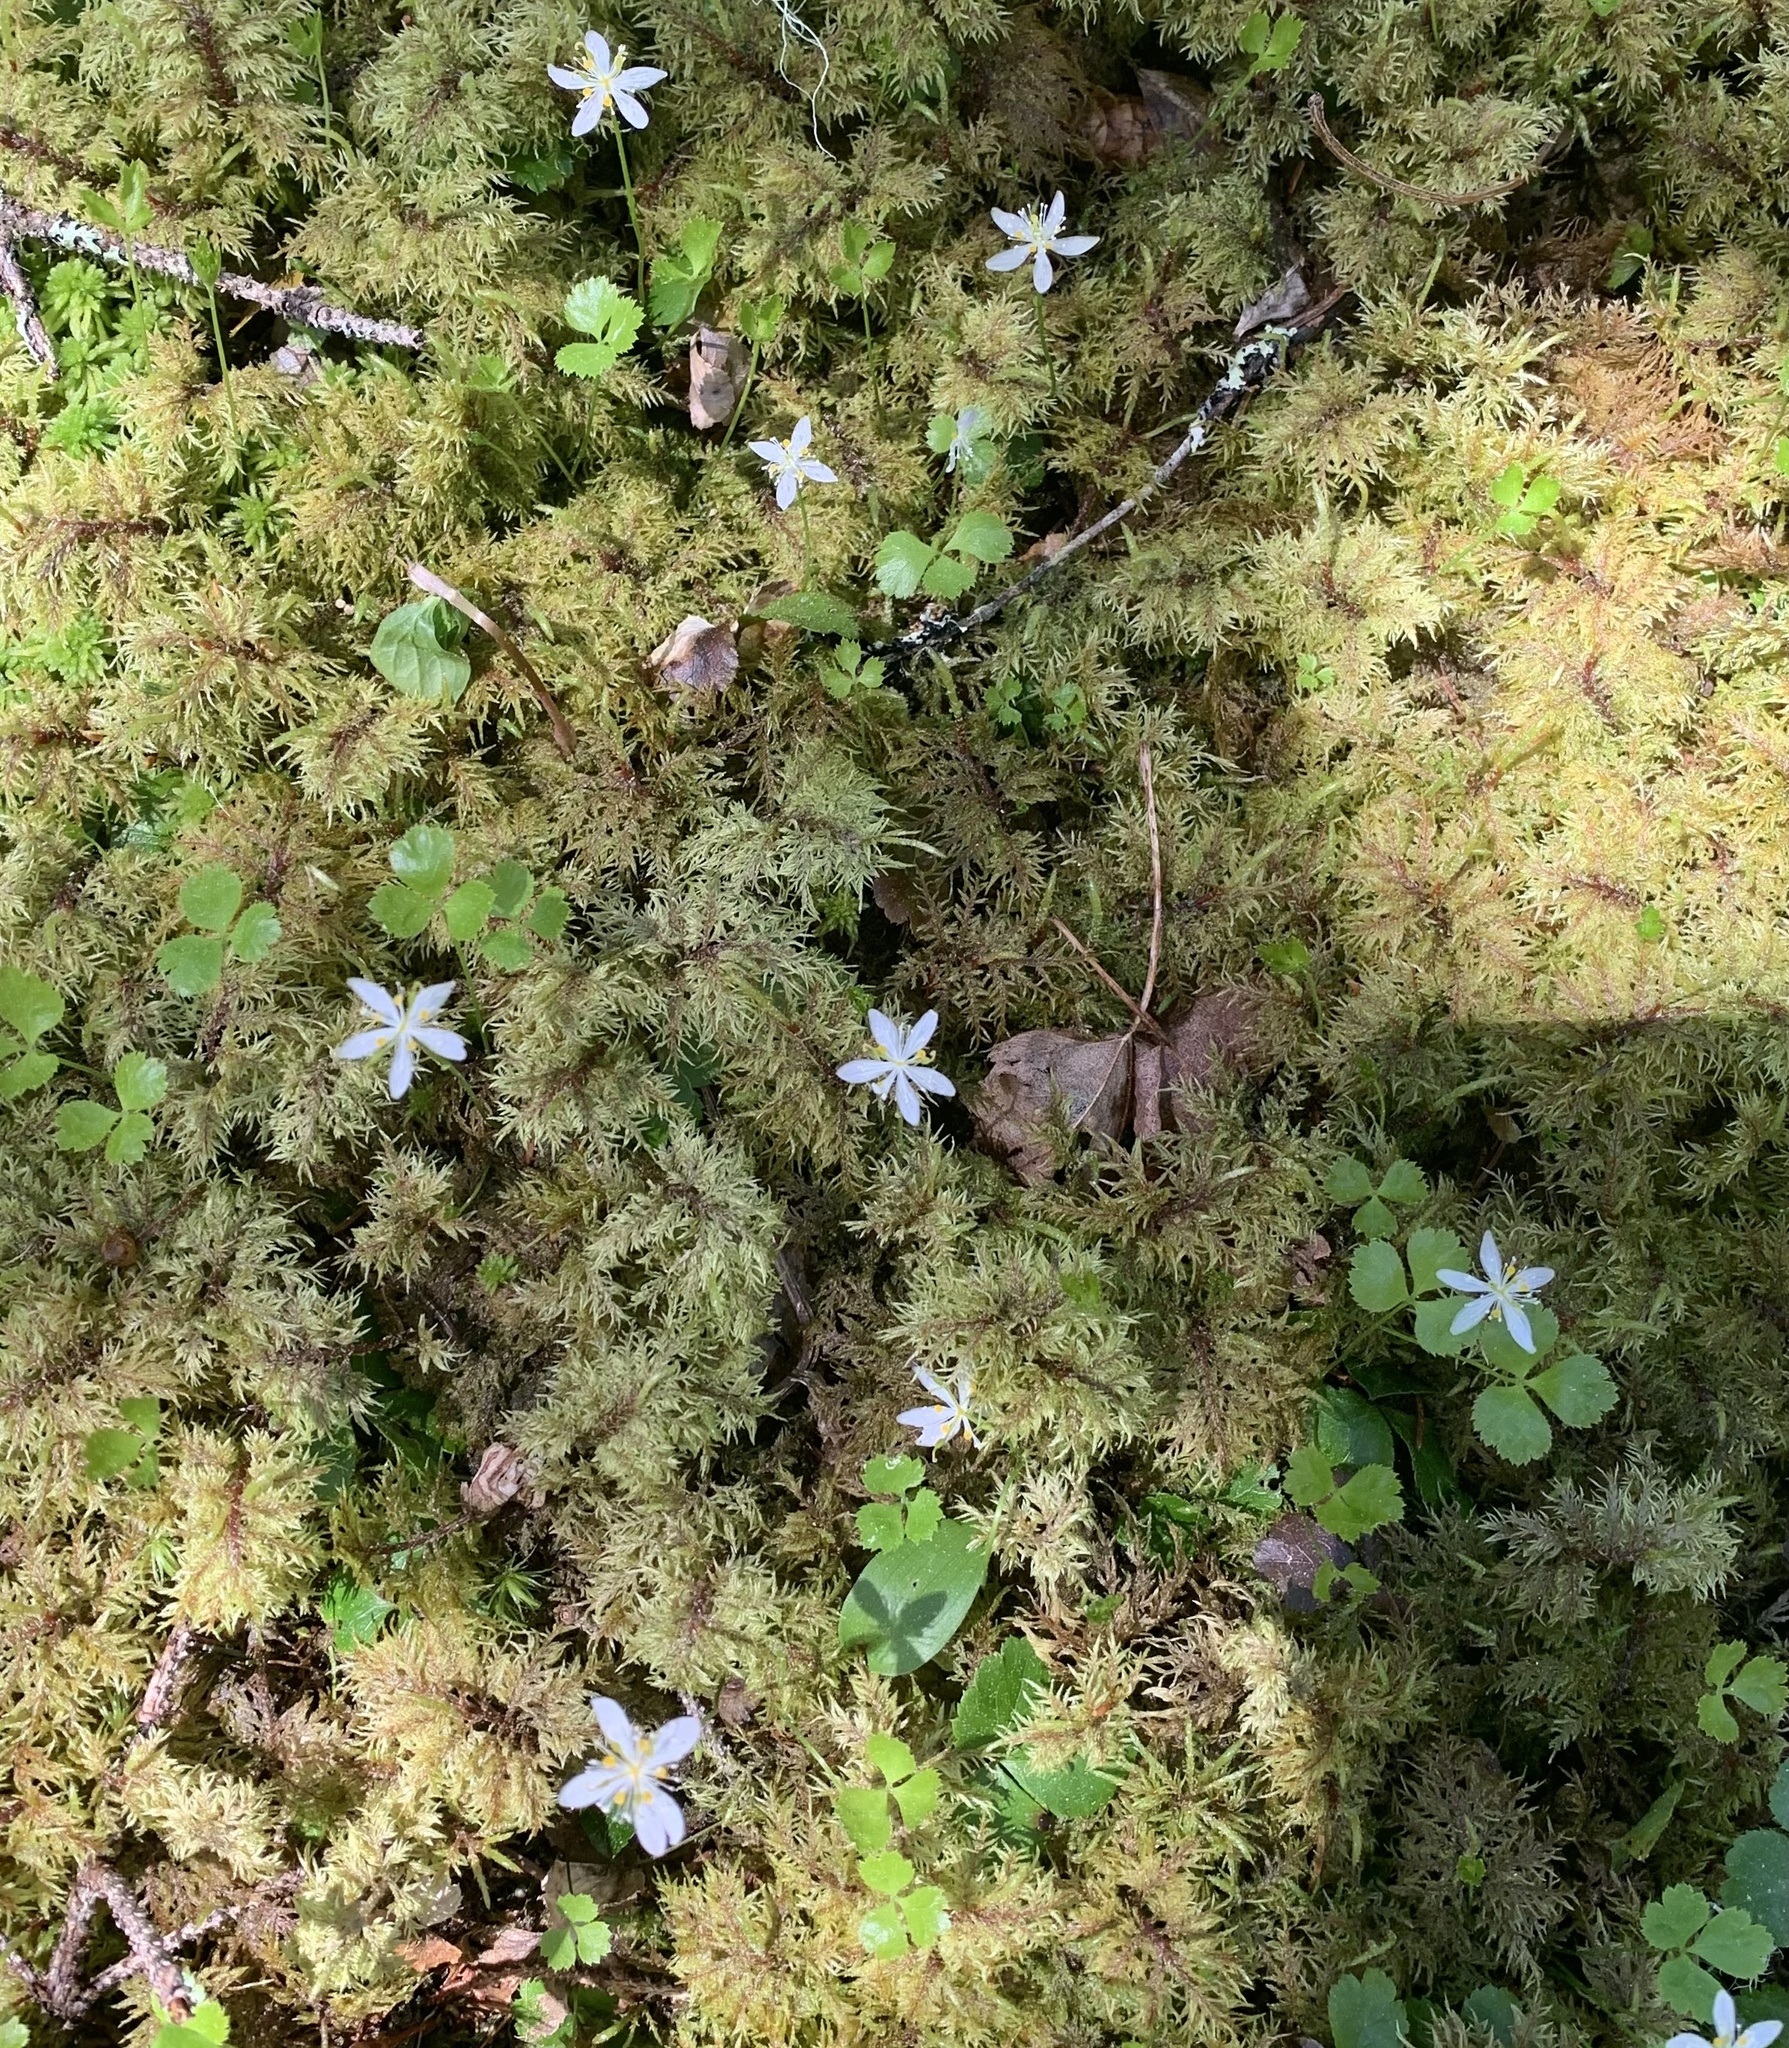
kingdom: Plantae
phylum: Tracheophyta
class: Magnoliopsida
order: Ranunculales
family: Ranunculaceae
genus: Coptis
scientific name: Coptis trifolia
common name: Canker-root
